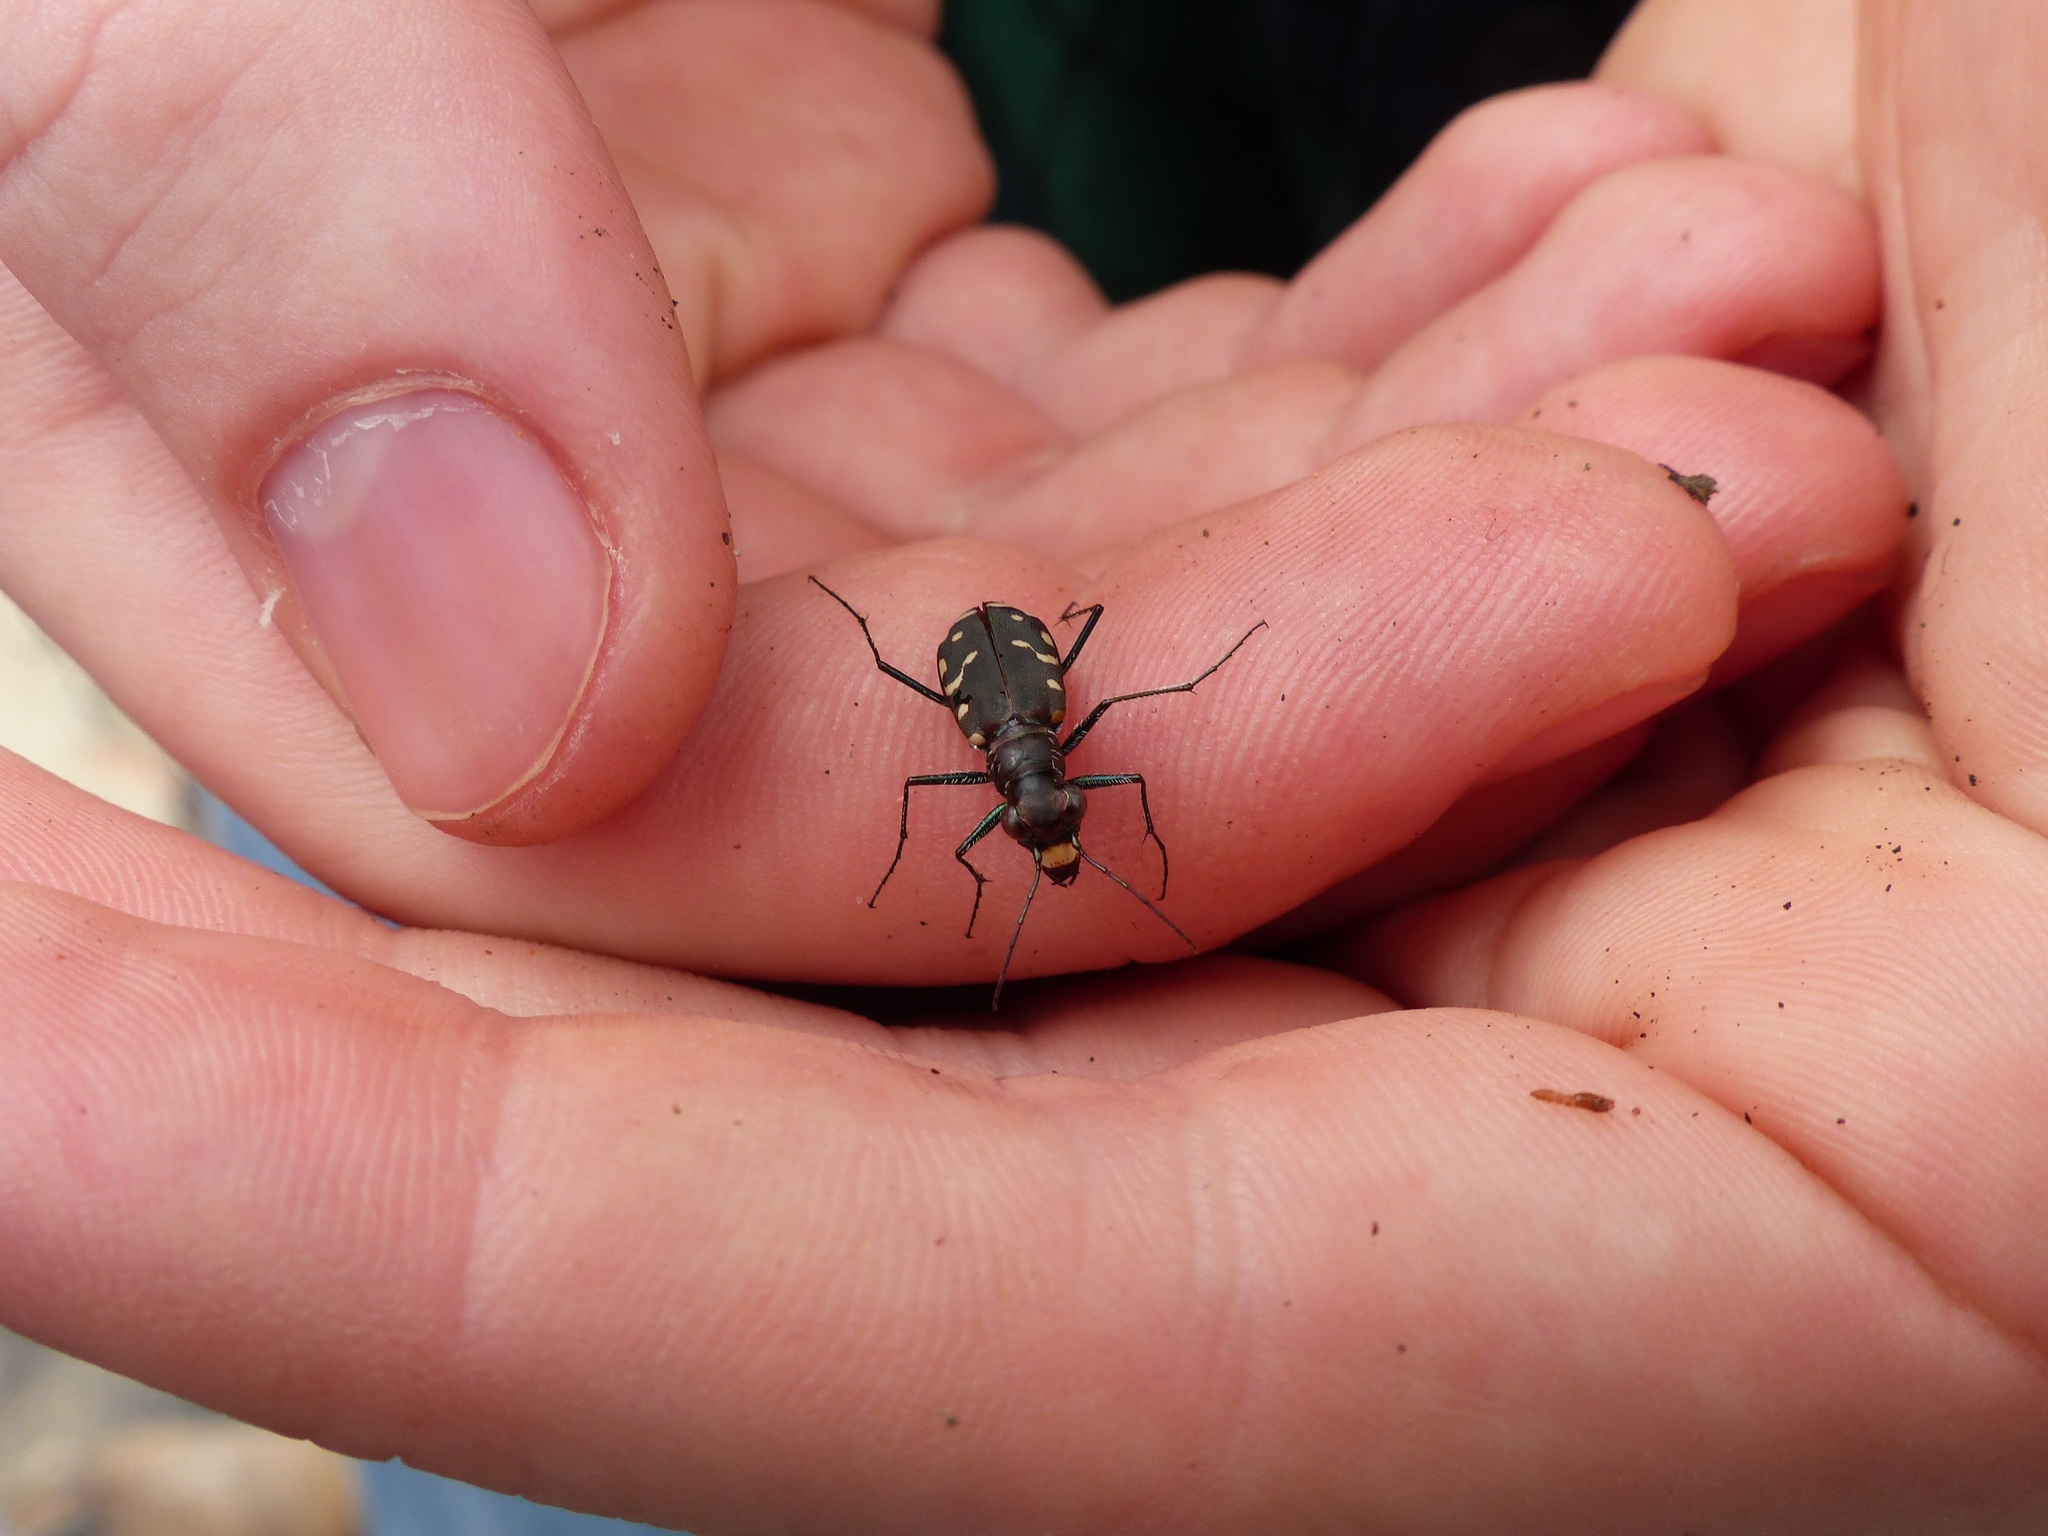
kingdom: Animalia
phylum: Arthropoda
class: Insecta
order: Coleoptera
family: Carabidae
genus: Cicindela
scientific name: Cicindela rufiventris
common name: Eastern red-bellied tiger beetle
